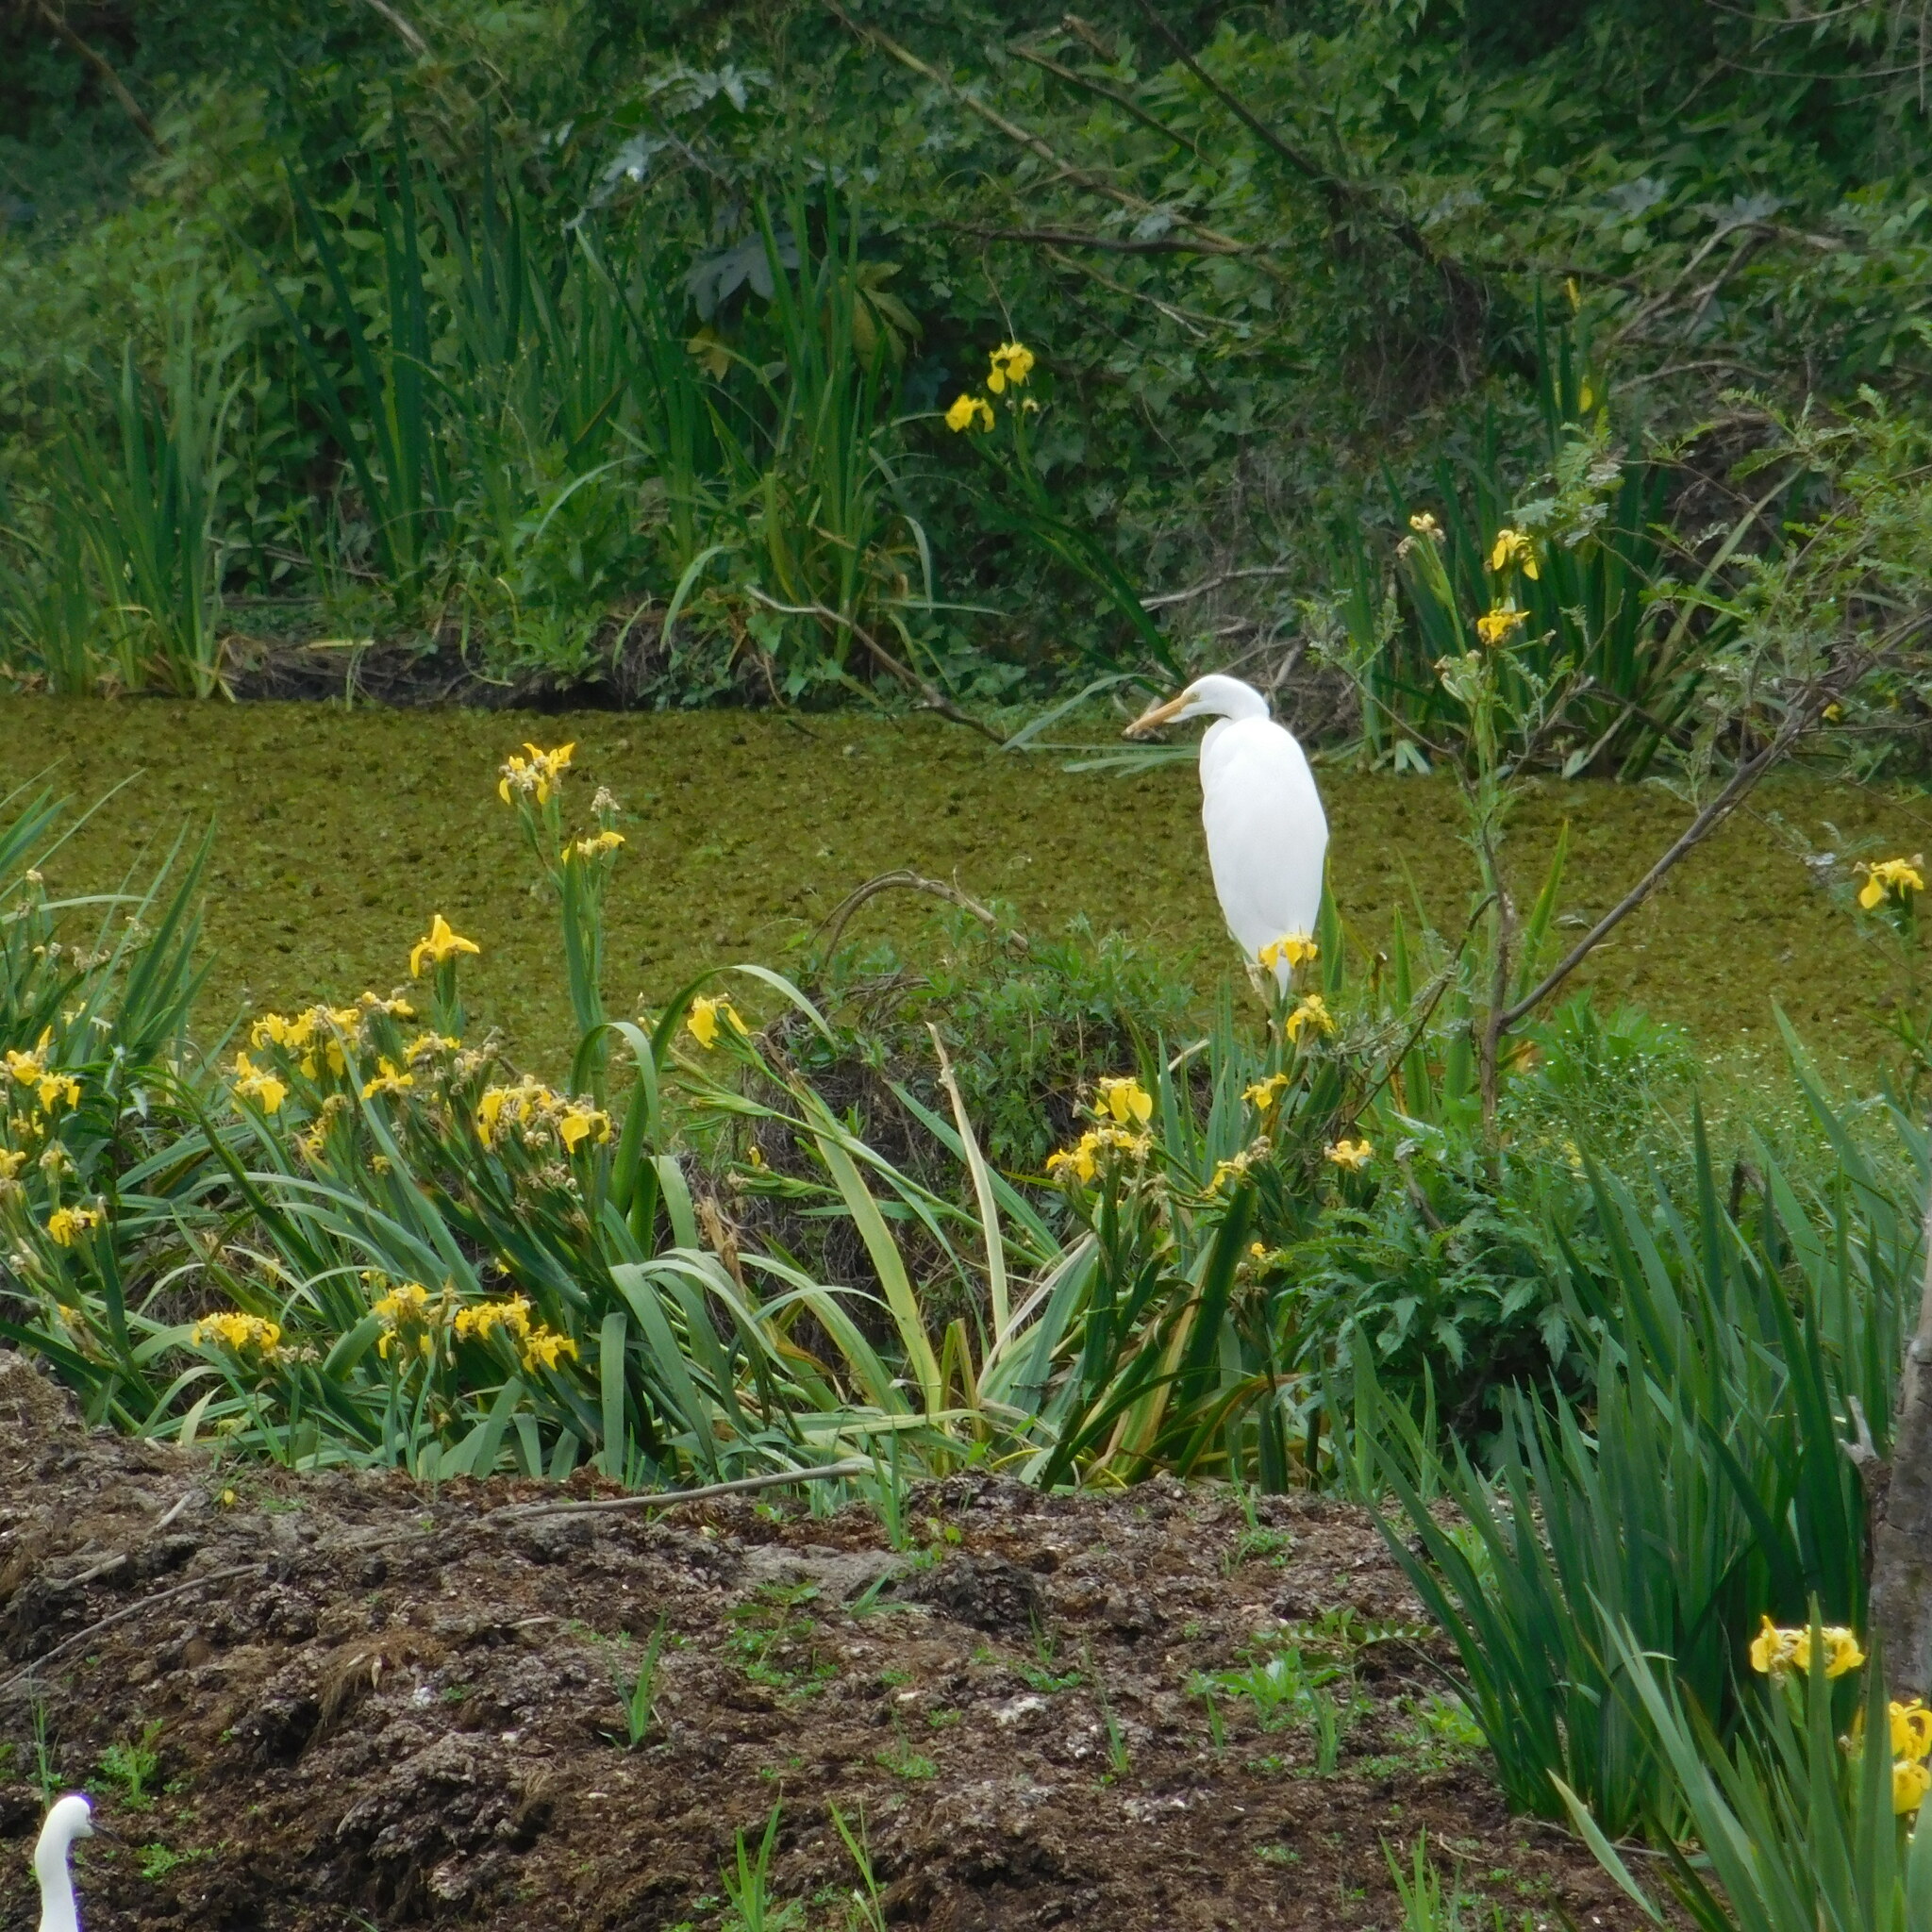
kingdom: Animalia
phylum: Chordata
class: Aves
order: Pelecaniformes
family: Ardeidae
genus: Ardea
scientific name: Ardea alba
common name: Great egret
